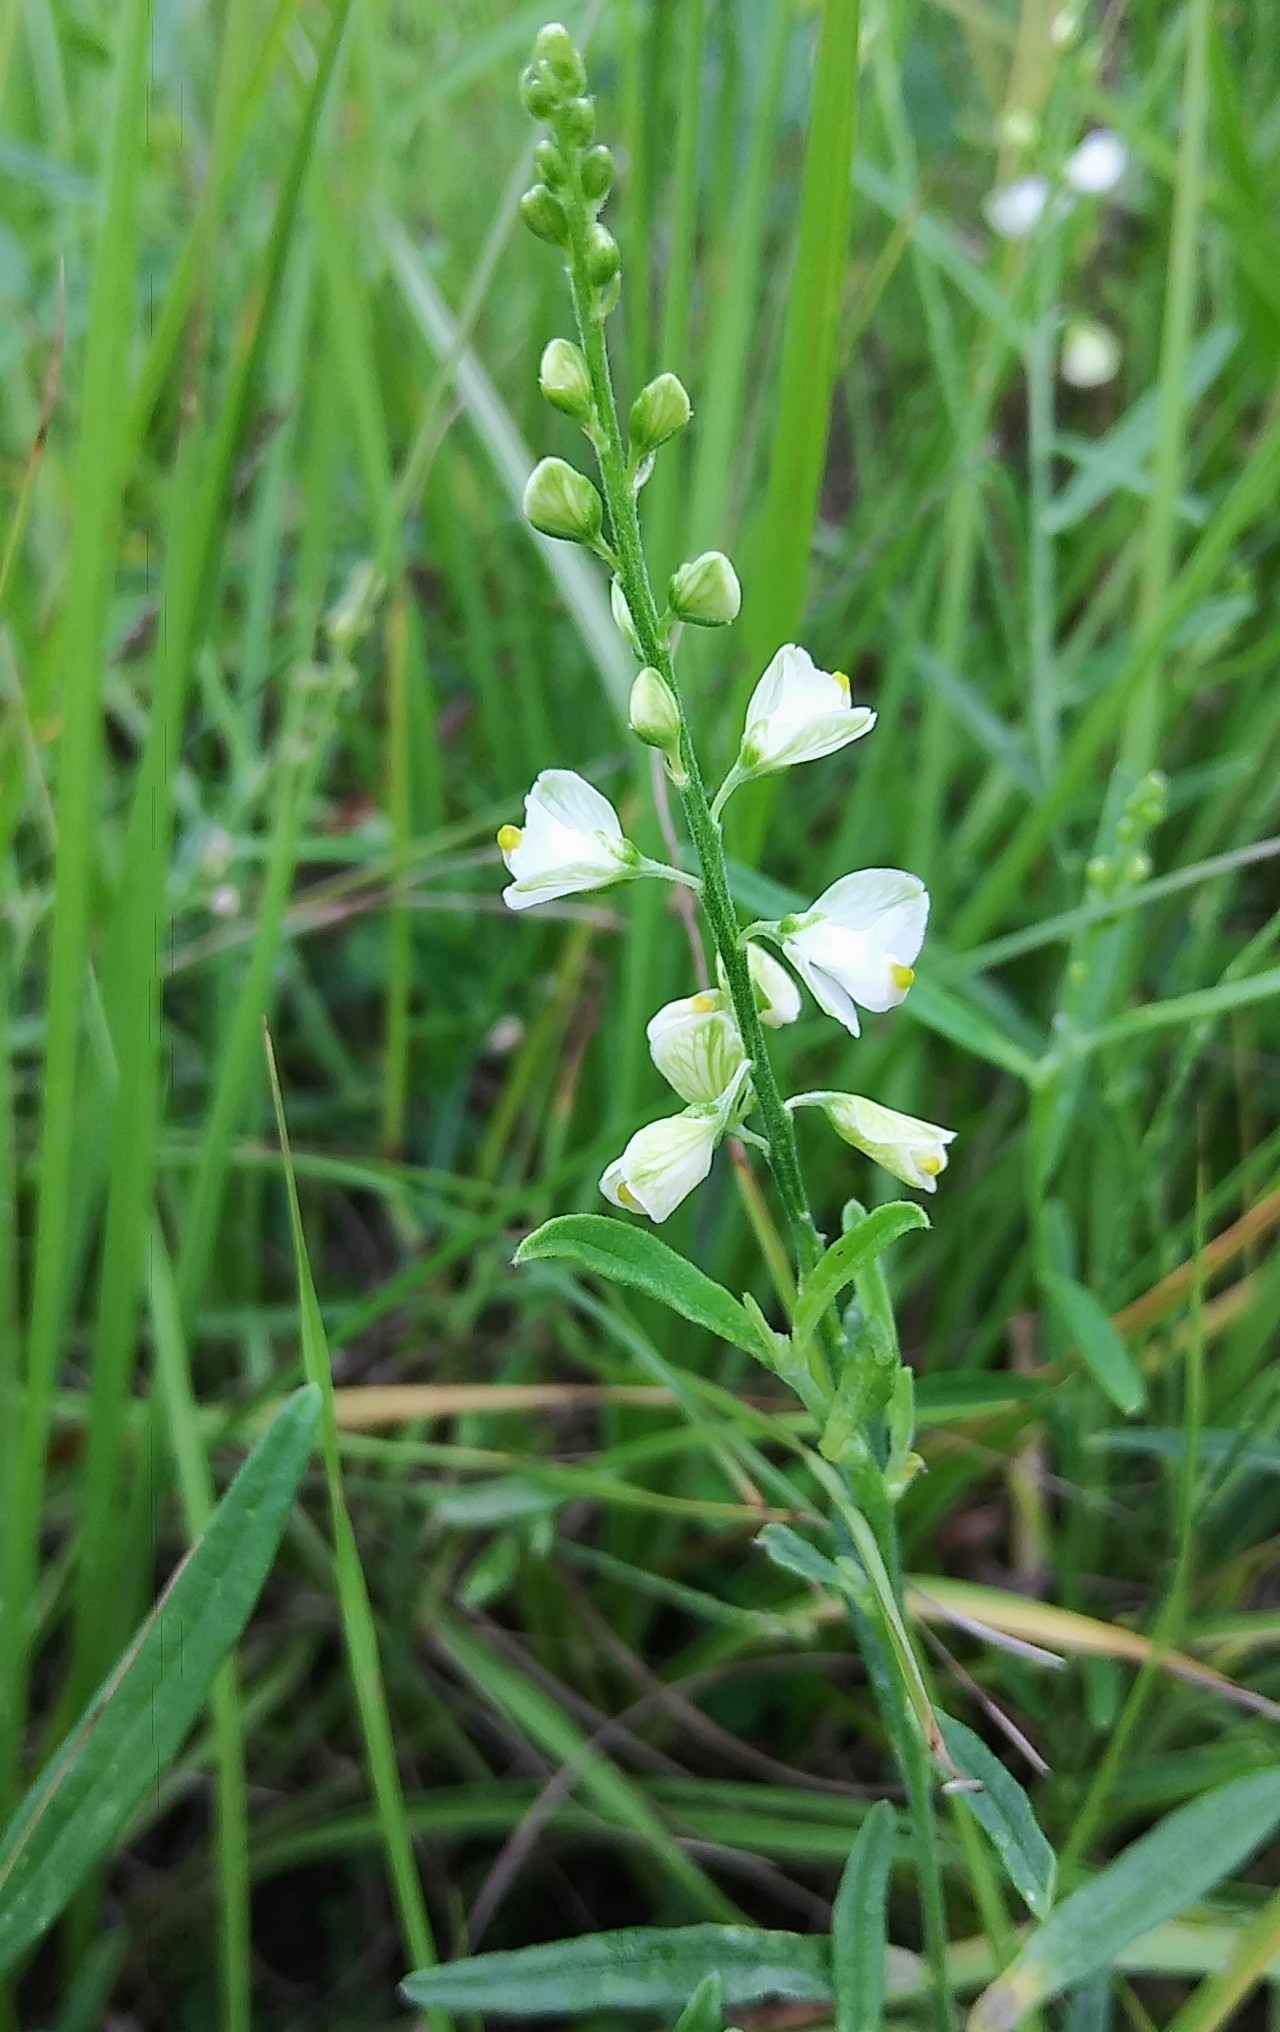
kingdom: Plantae
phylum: Tracheophyta
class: Magnoliopsida
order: Fabales
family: Polygalaceae
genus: Asemeia
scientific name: Asemeia grandiflora
